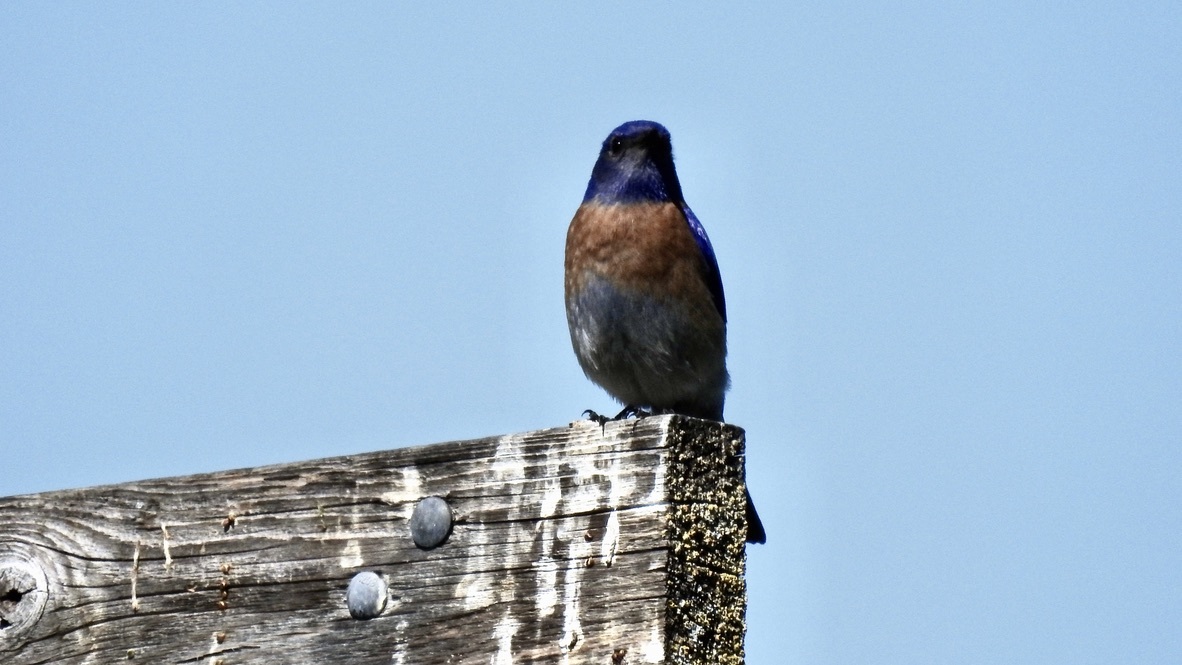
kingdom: Animalia
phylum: Chordata
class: Aves
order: Passeriformes
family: Turdidae
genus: Sialia
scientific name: Sialia mexicana
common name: Western bluebird
